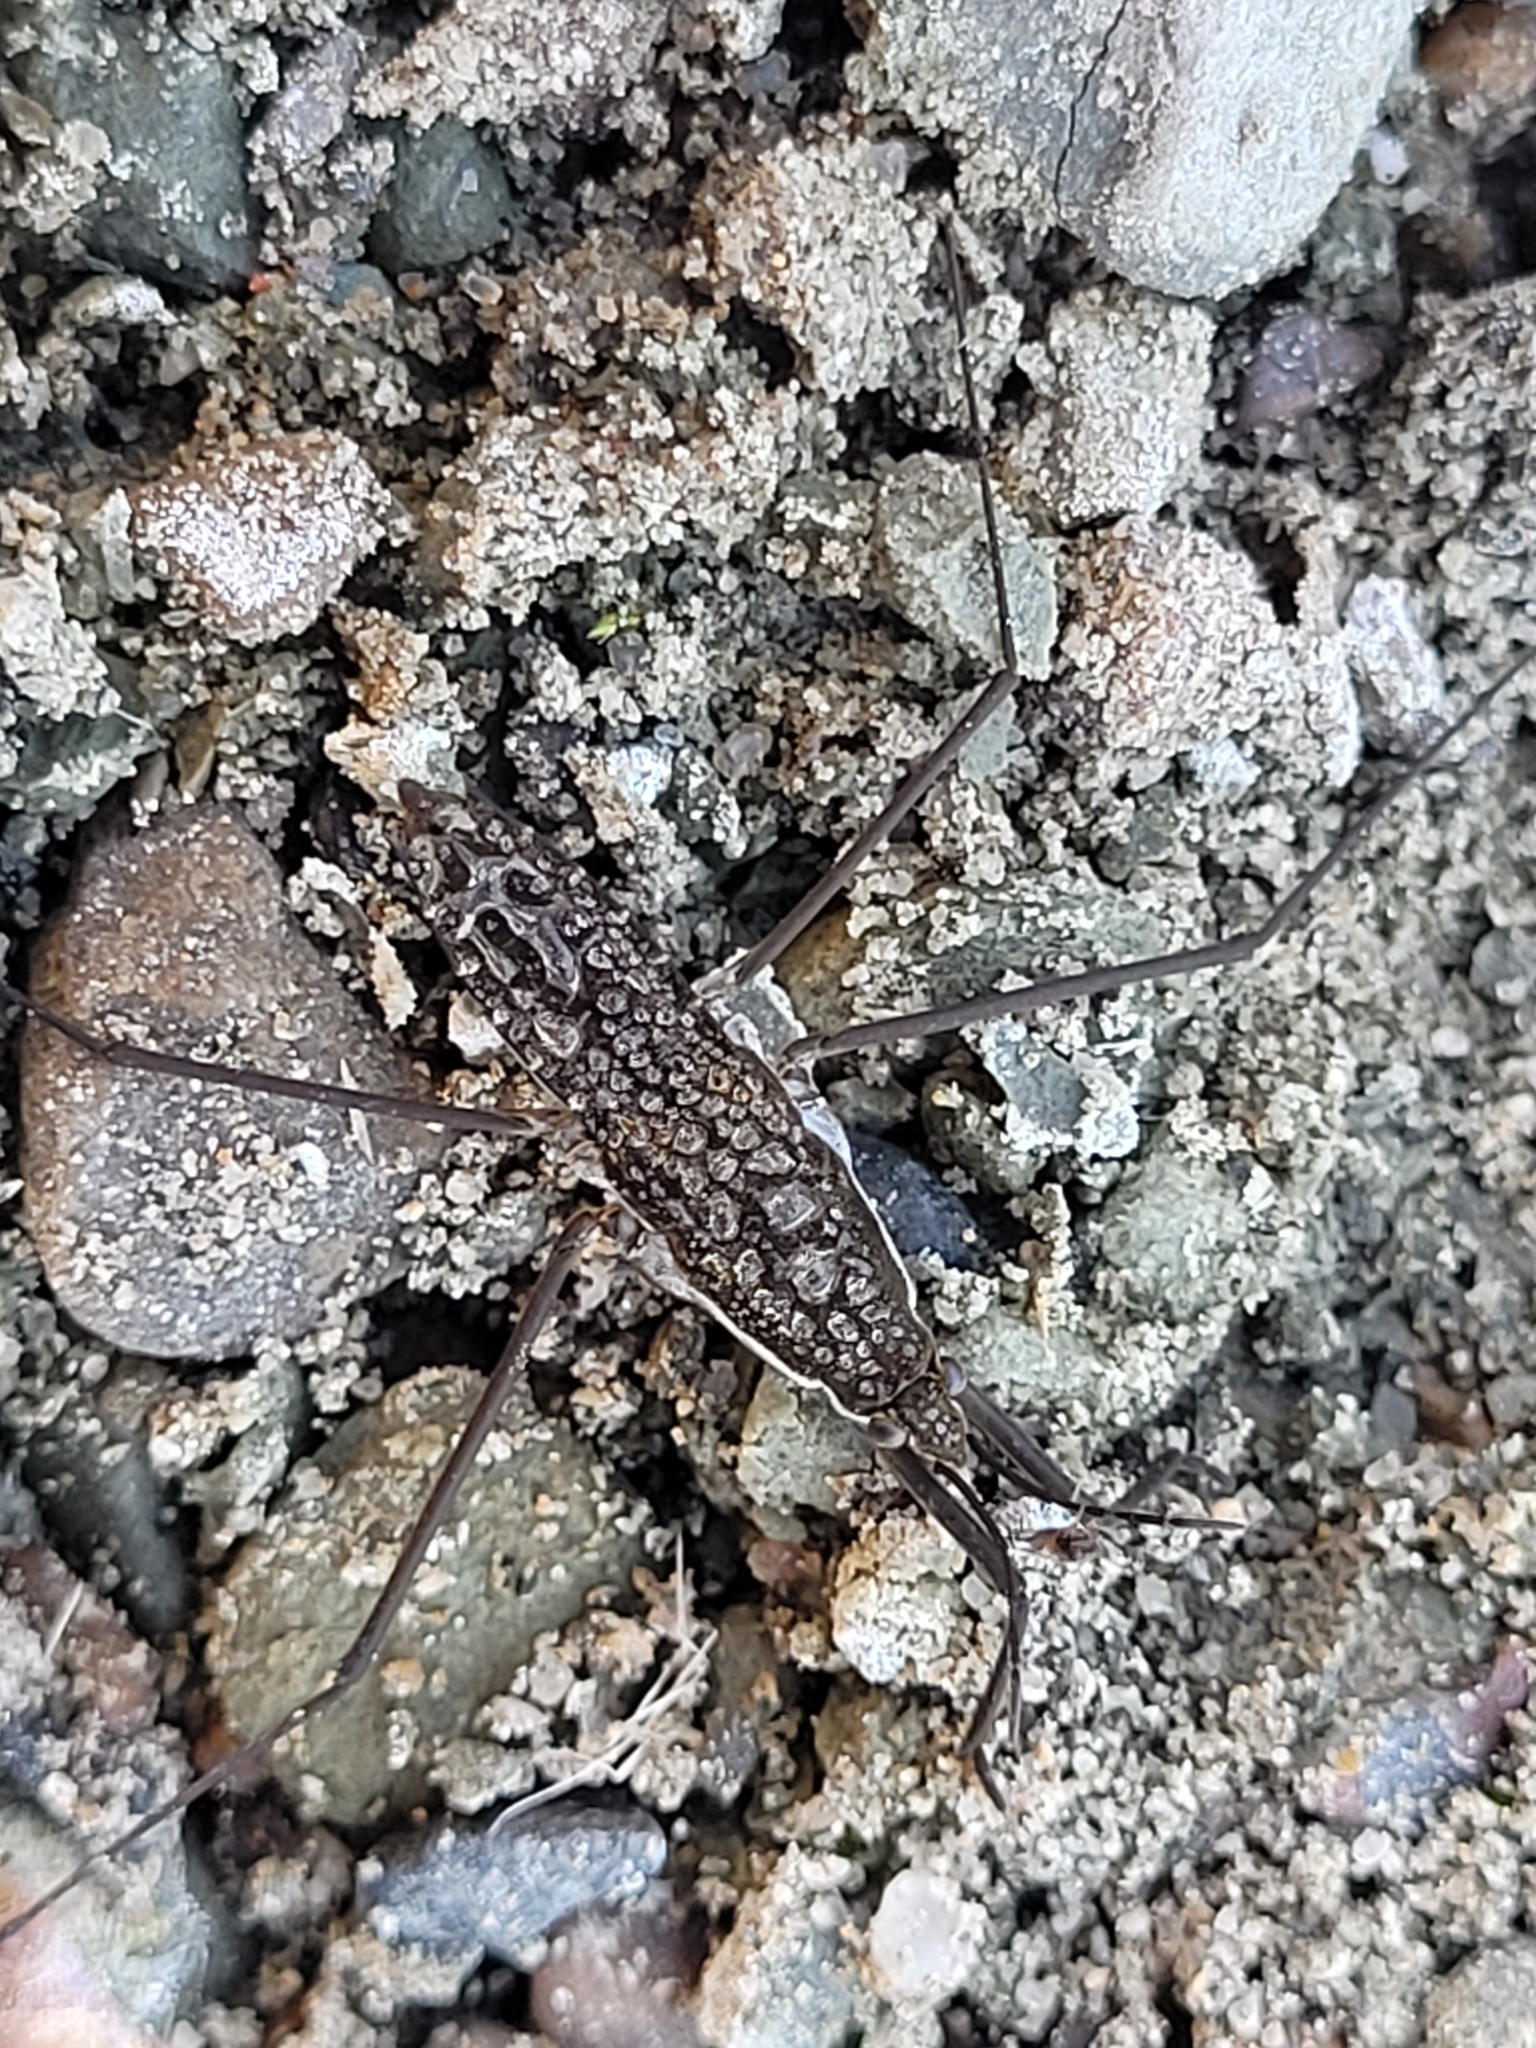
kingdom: Animalia
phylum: Arthropoda
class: Insecta
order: Hemiptera
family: Gerridae
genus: Aquarius
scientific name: Aquarius remigis
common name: Common water strider
